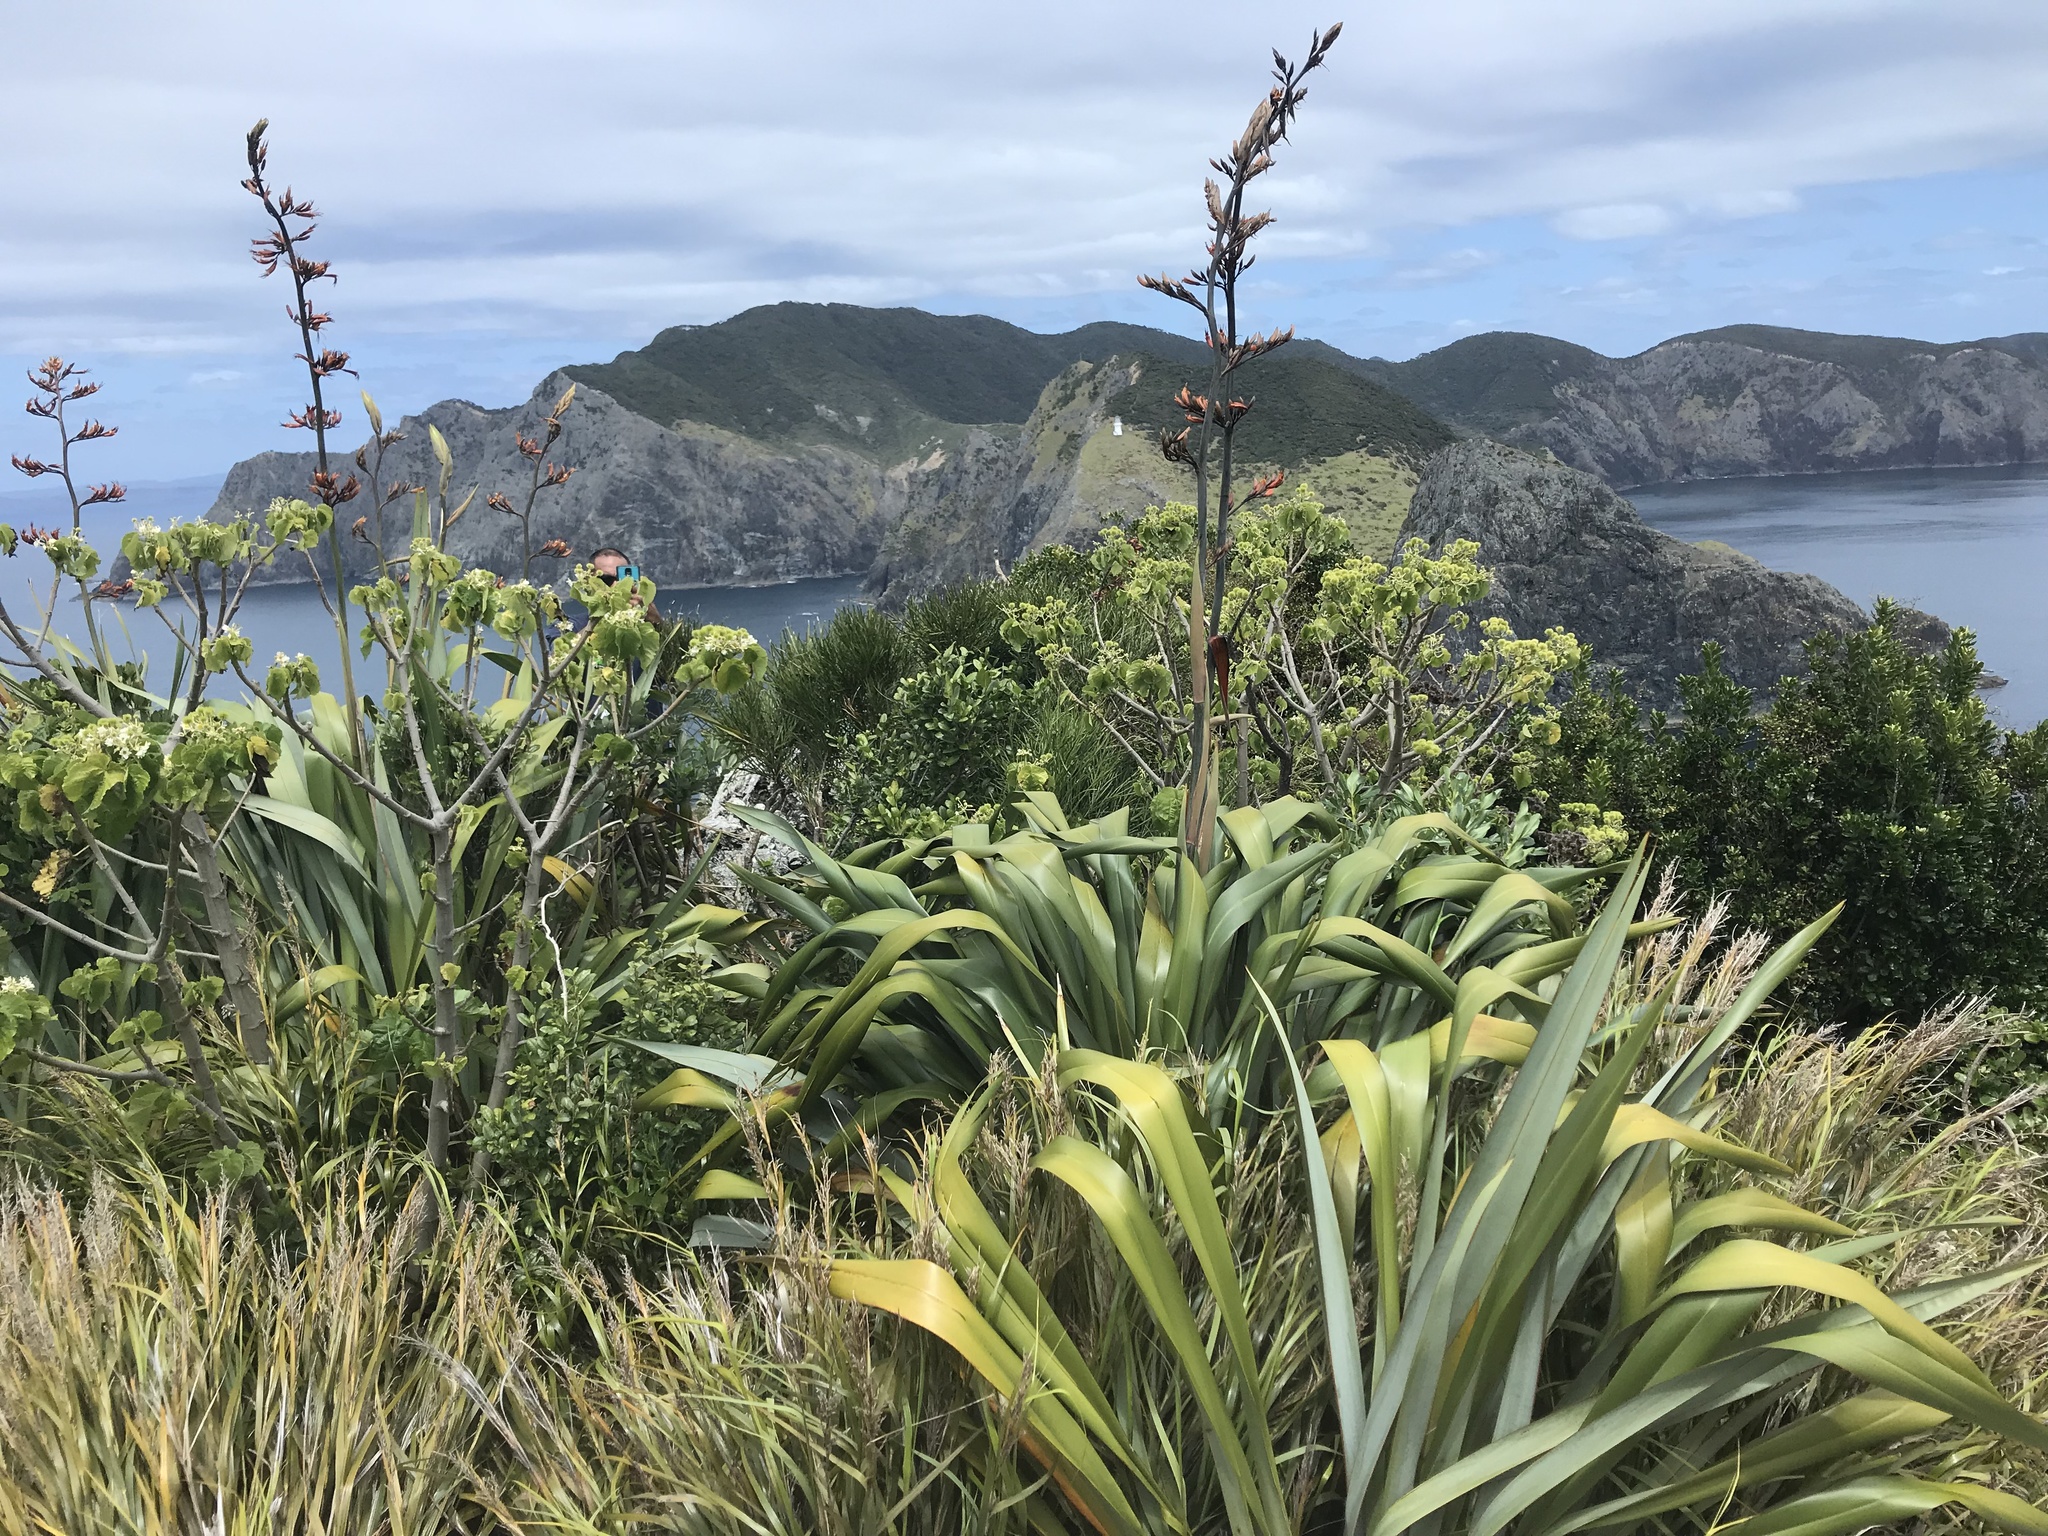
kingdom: Plantae
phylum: Tracheophyta
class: Liliopsida
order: Poales
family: Cyperaceae
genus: Gahnia
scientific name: Gahnia lacera
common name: Sawsedge
